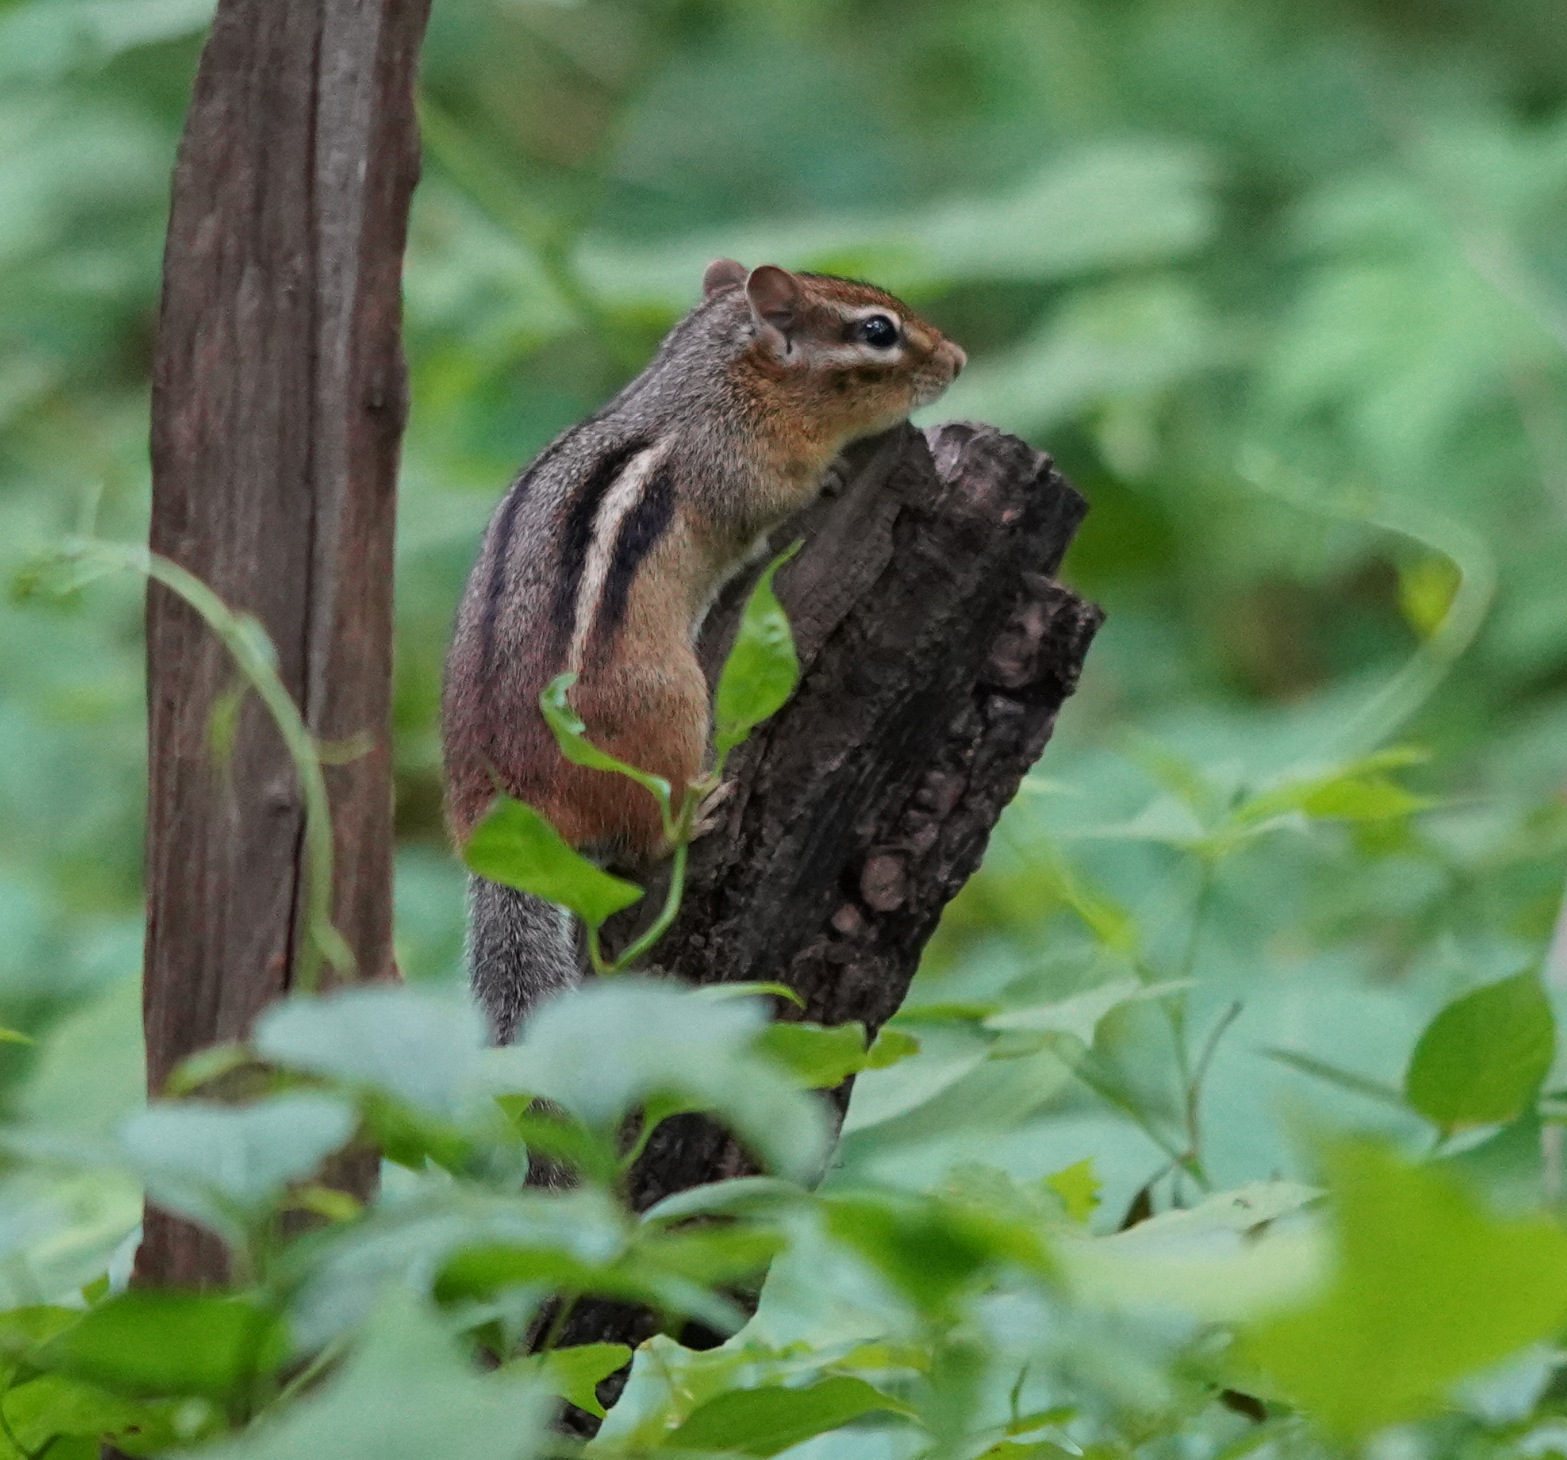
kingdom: Animalia
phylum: Chordata
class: Mammalia
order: Rodentia
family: Sciuridae
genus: Tamias
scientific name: Tamias striatus
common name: Eastern chipmunk
